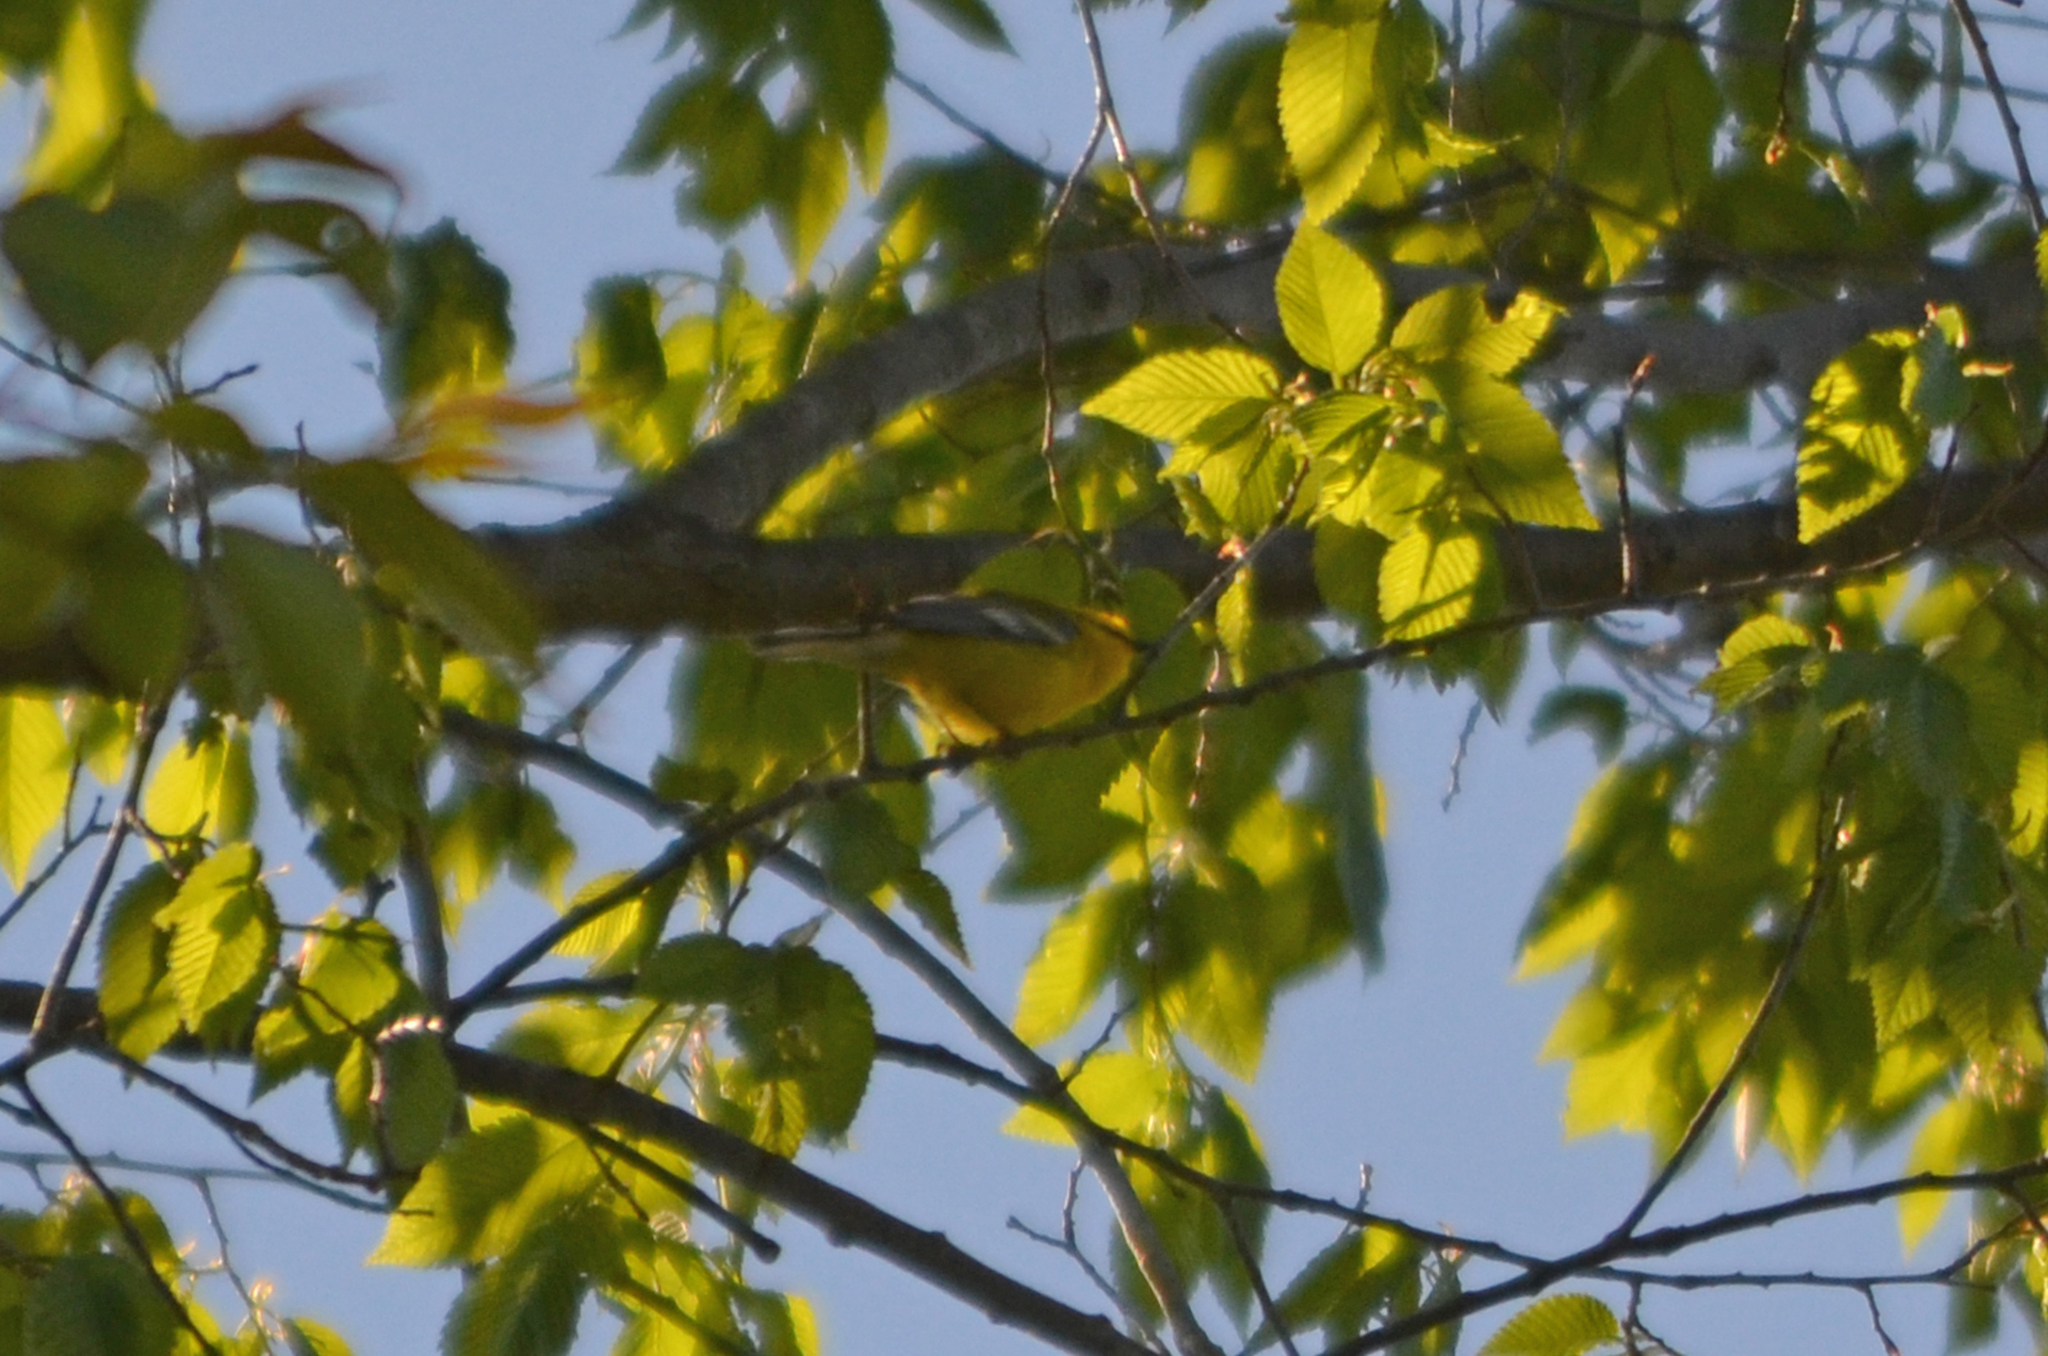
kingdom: Animalia
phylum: Chordata
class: Aves
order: Passeriformes
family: Parulidae
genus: Vermivora
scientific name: Vermivora cyanoptera
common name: Blue-winged warbler
